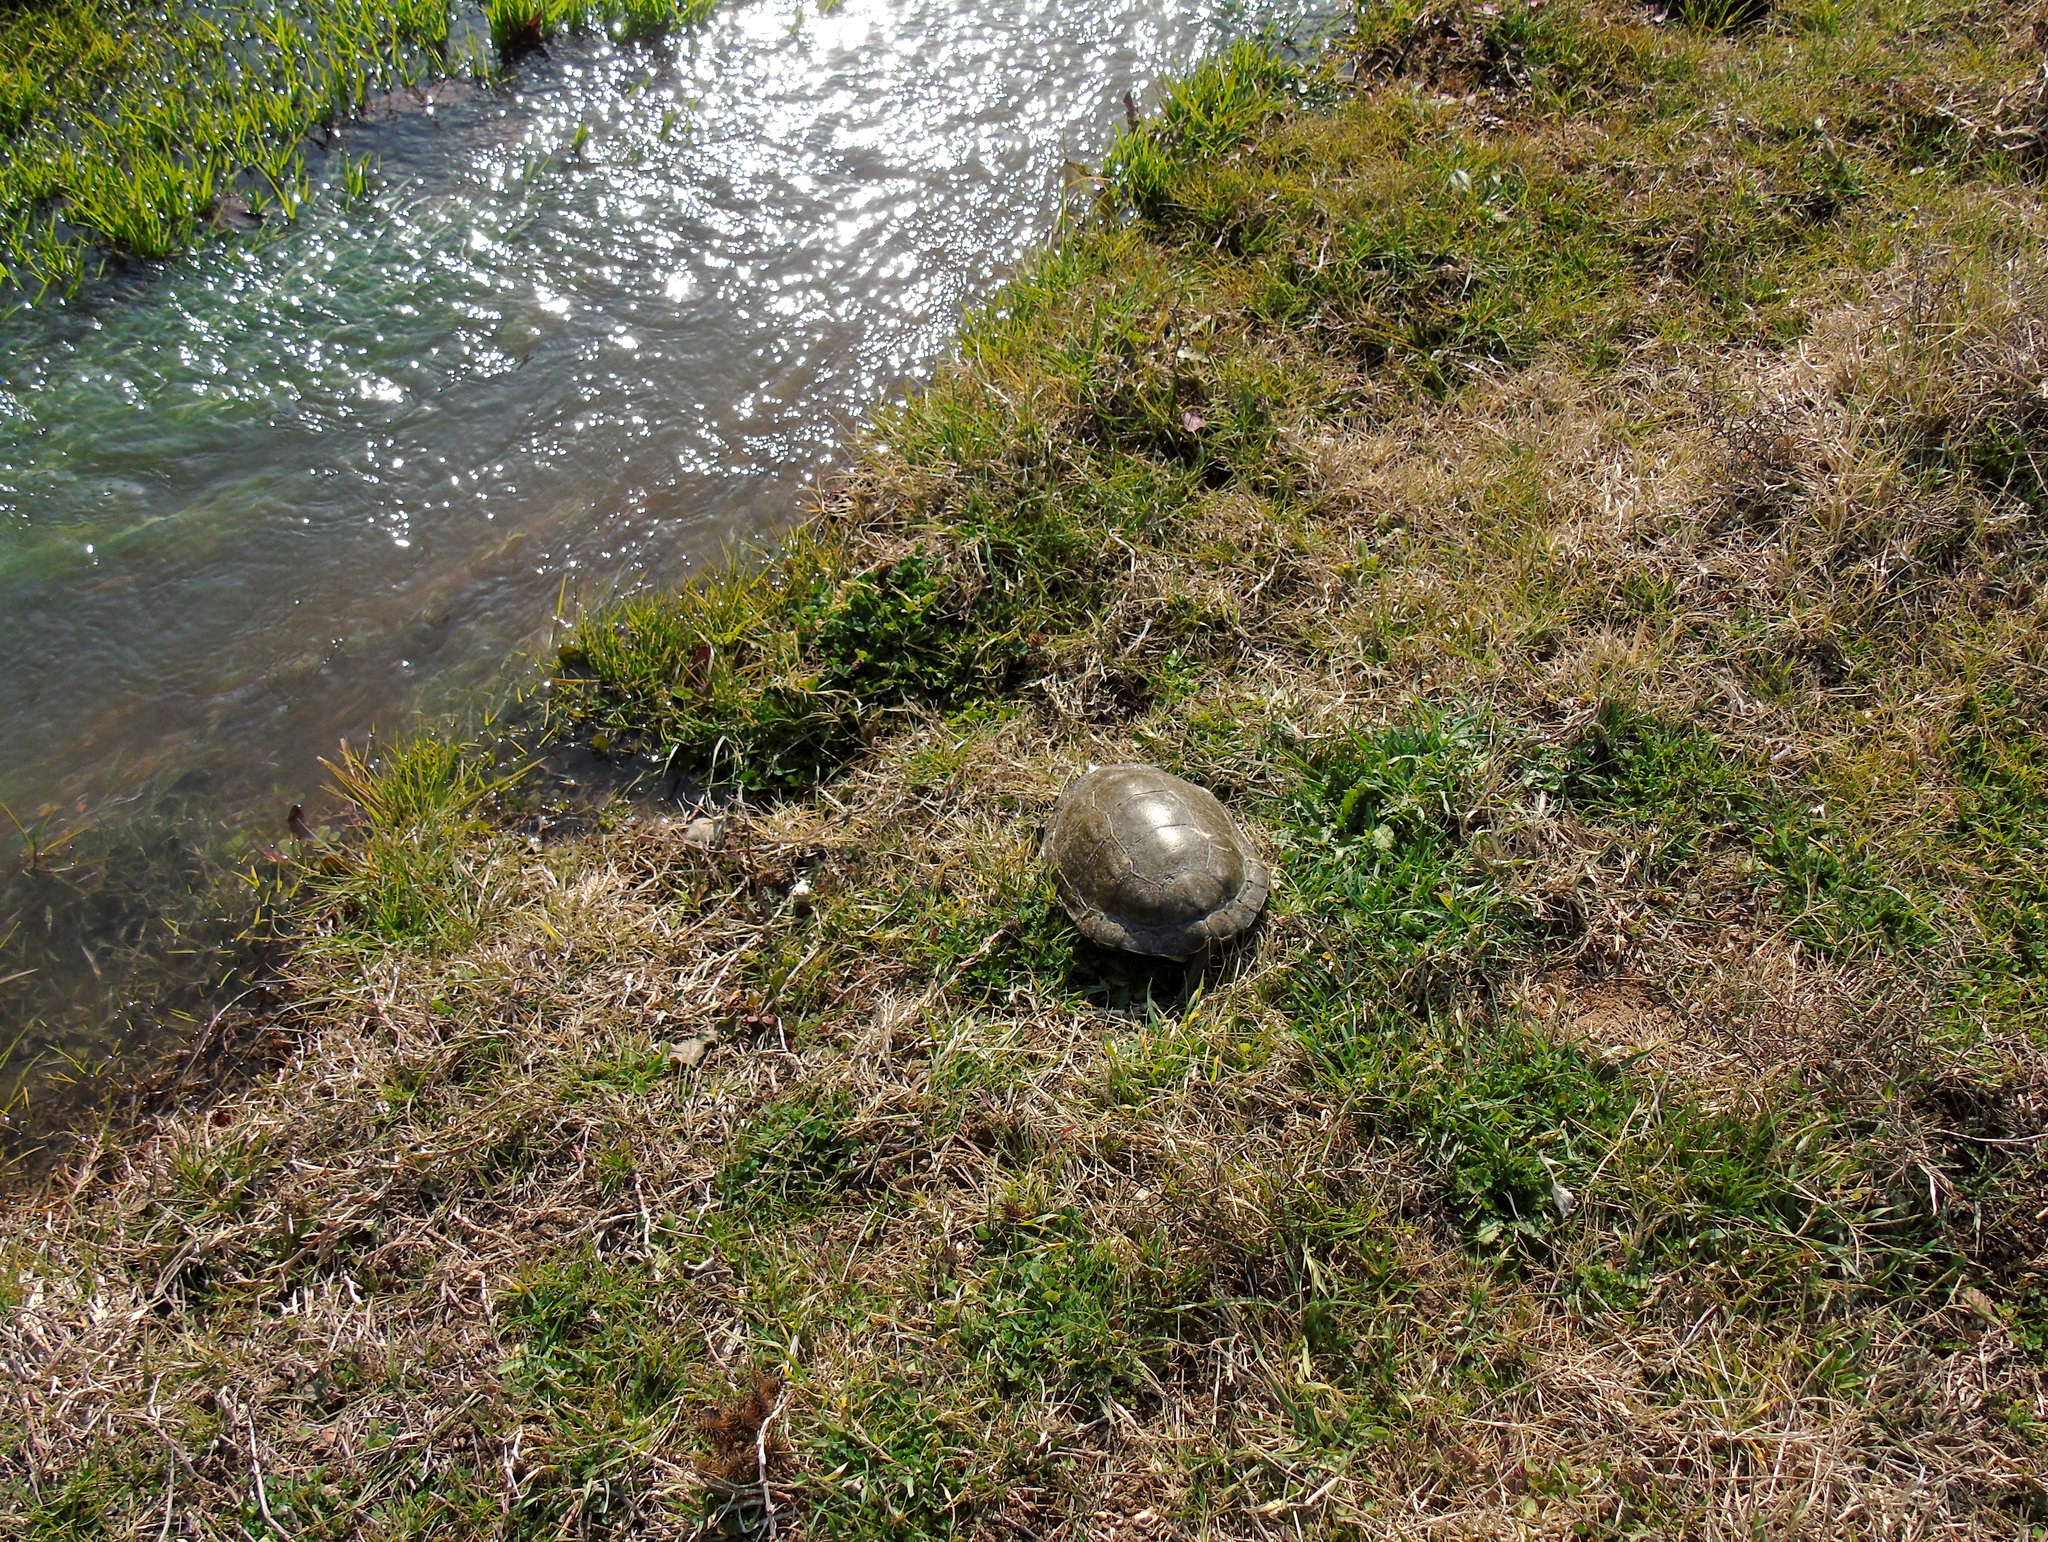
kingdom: Animalia
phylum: Chordata
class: Testudines
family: Geoemydidae
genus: Mauremys
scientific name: Mauremys caspica
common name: Caspian turtle
